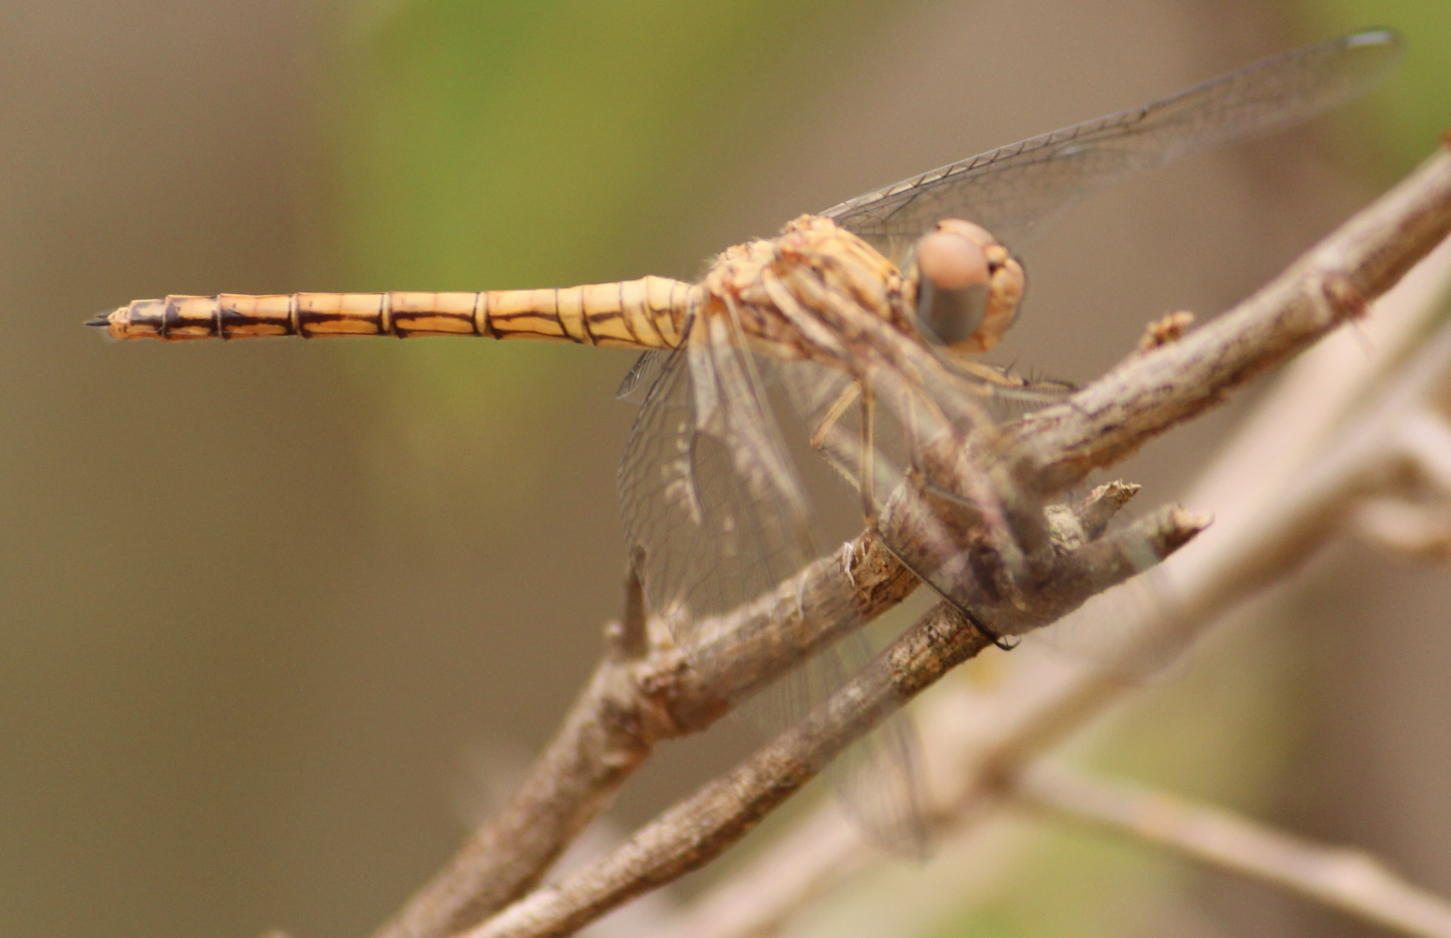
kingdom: Animalia
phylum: Arthropoda
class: Insecta
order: Odonata
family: Libellulidae
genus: Trithemis
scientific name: Trithemis werneri
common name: Elegant dropwing
